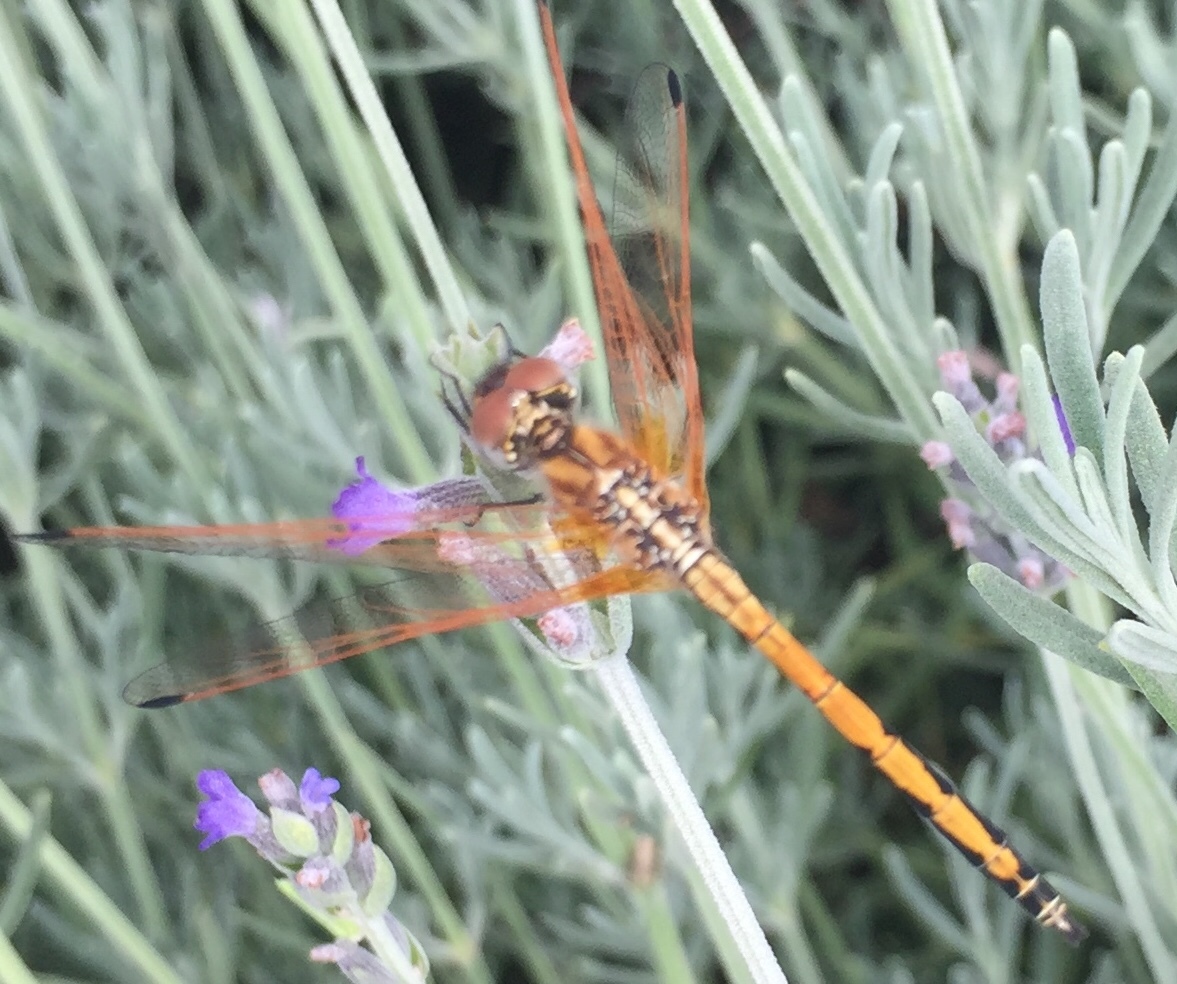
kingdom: Animalia
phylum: Arthropoda
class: Insecta
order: Odonata
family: Libellulidae
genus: Trithemis
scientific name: Trithemis arteriosa
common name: Red-veined dropwing
